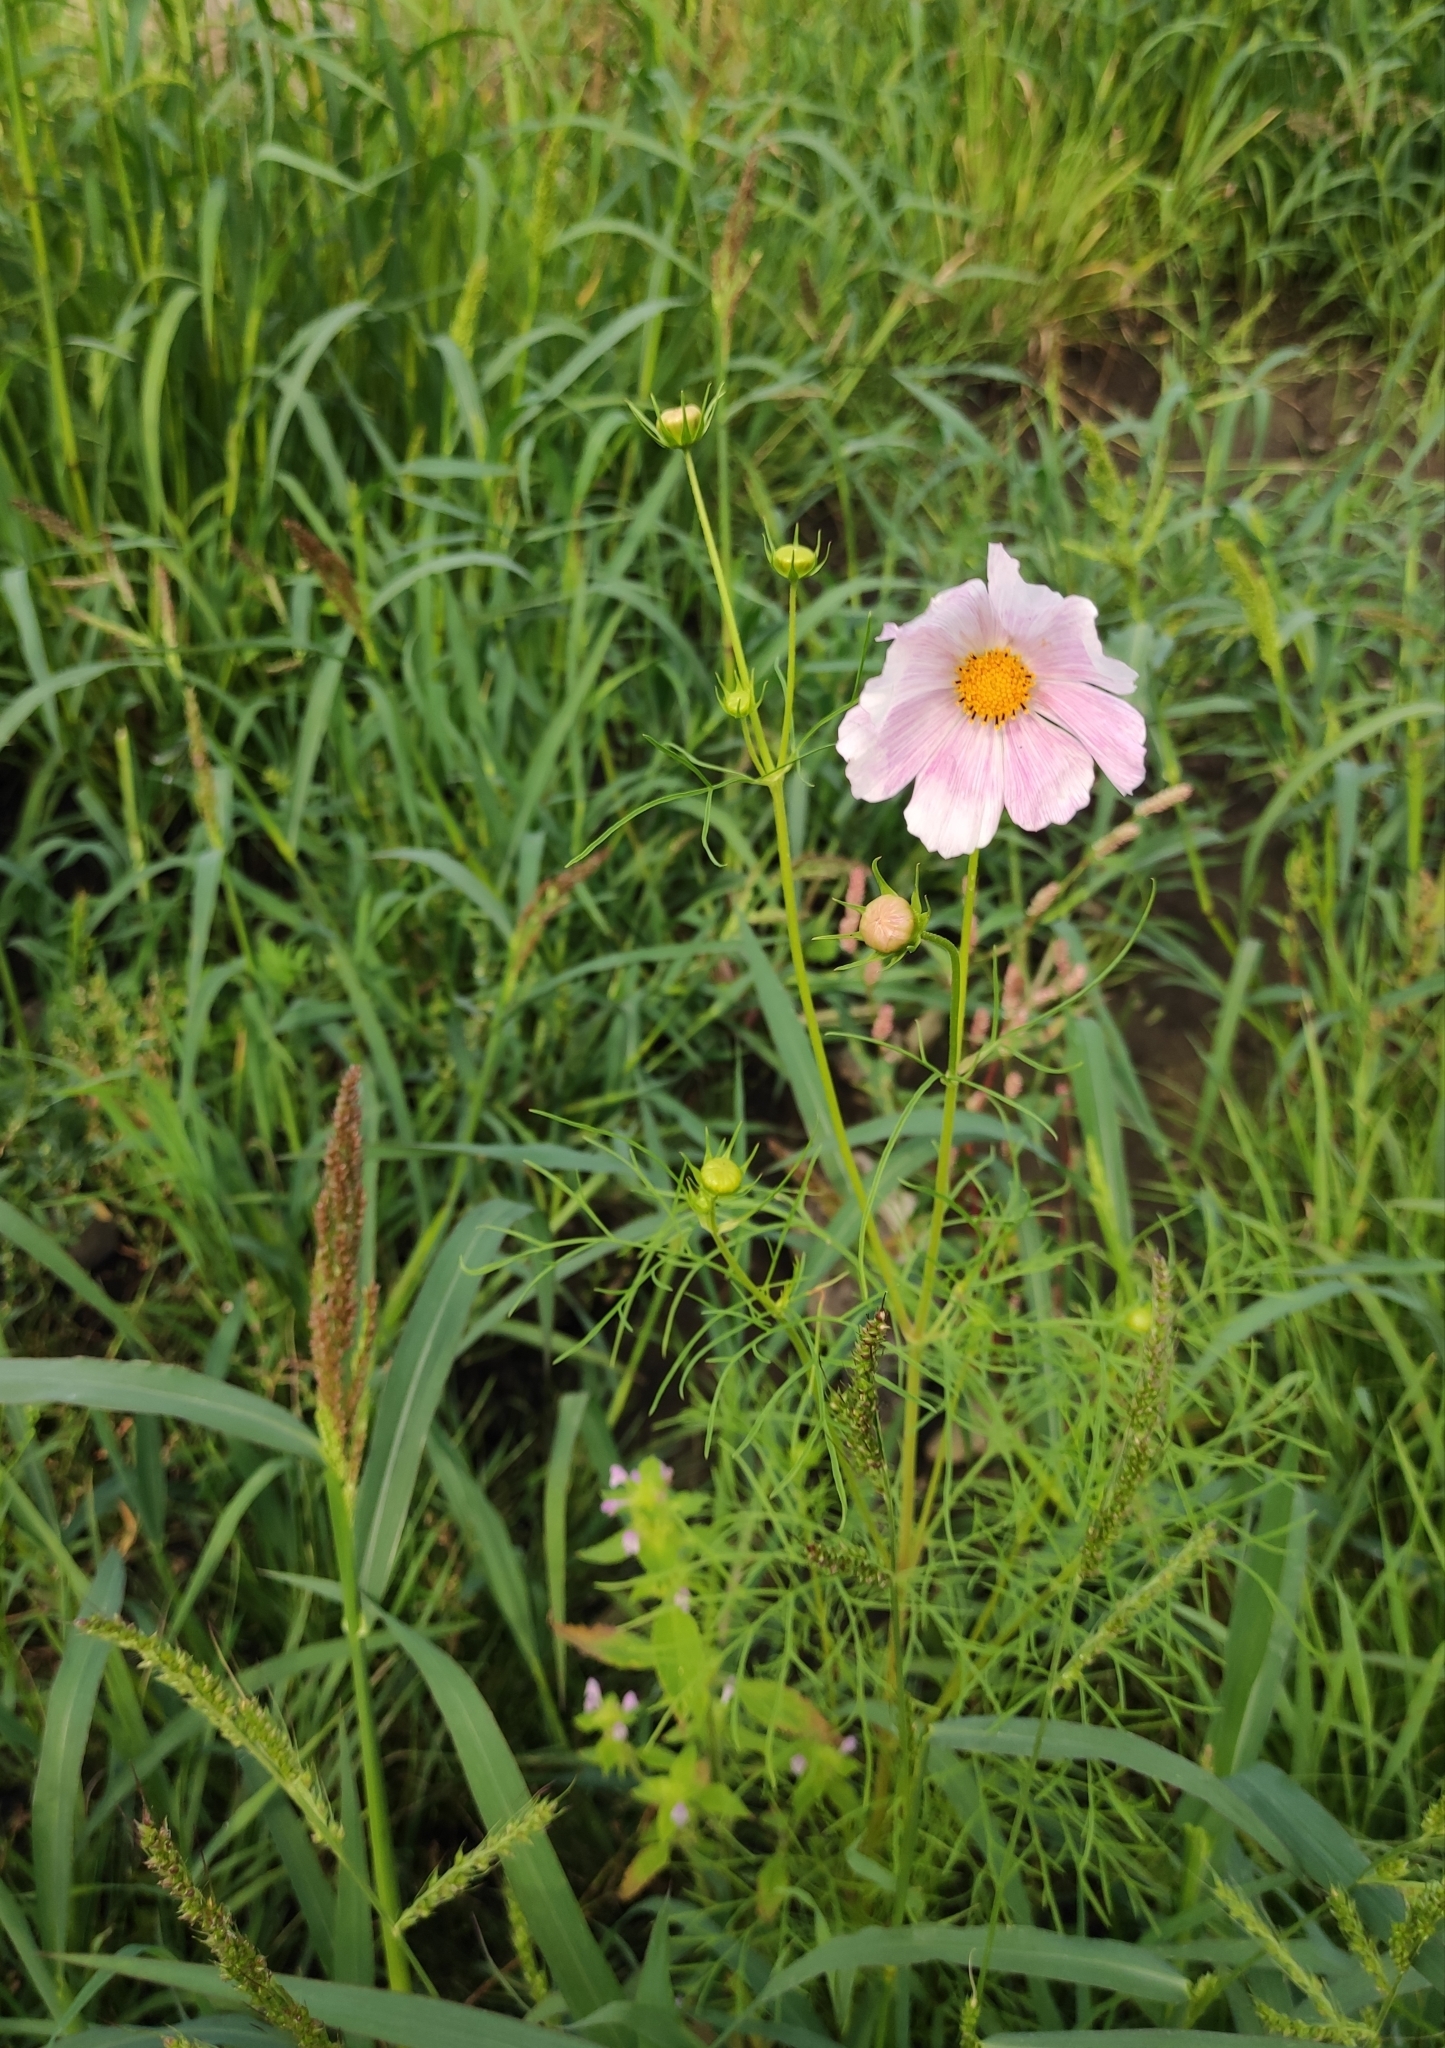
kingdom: Plantae
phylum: Tracheophyta
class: Magnoliopsida
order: Asterales
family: Asteraceae
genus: Cosmos
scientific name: Cosmos bipinnatus
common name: Garden cosmos
